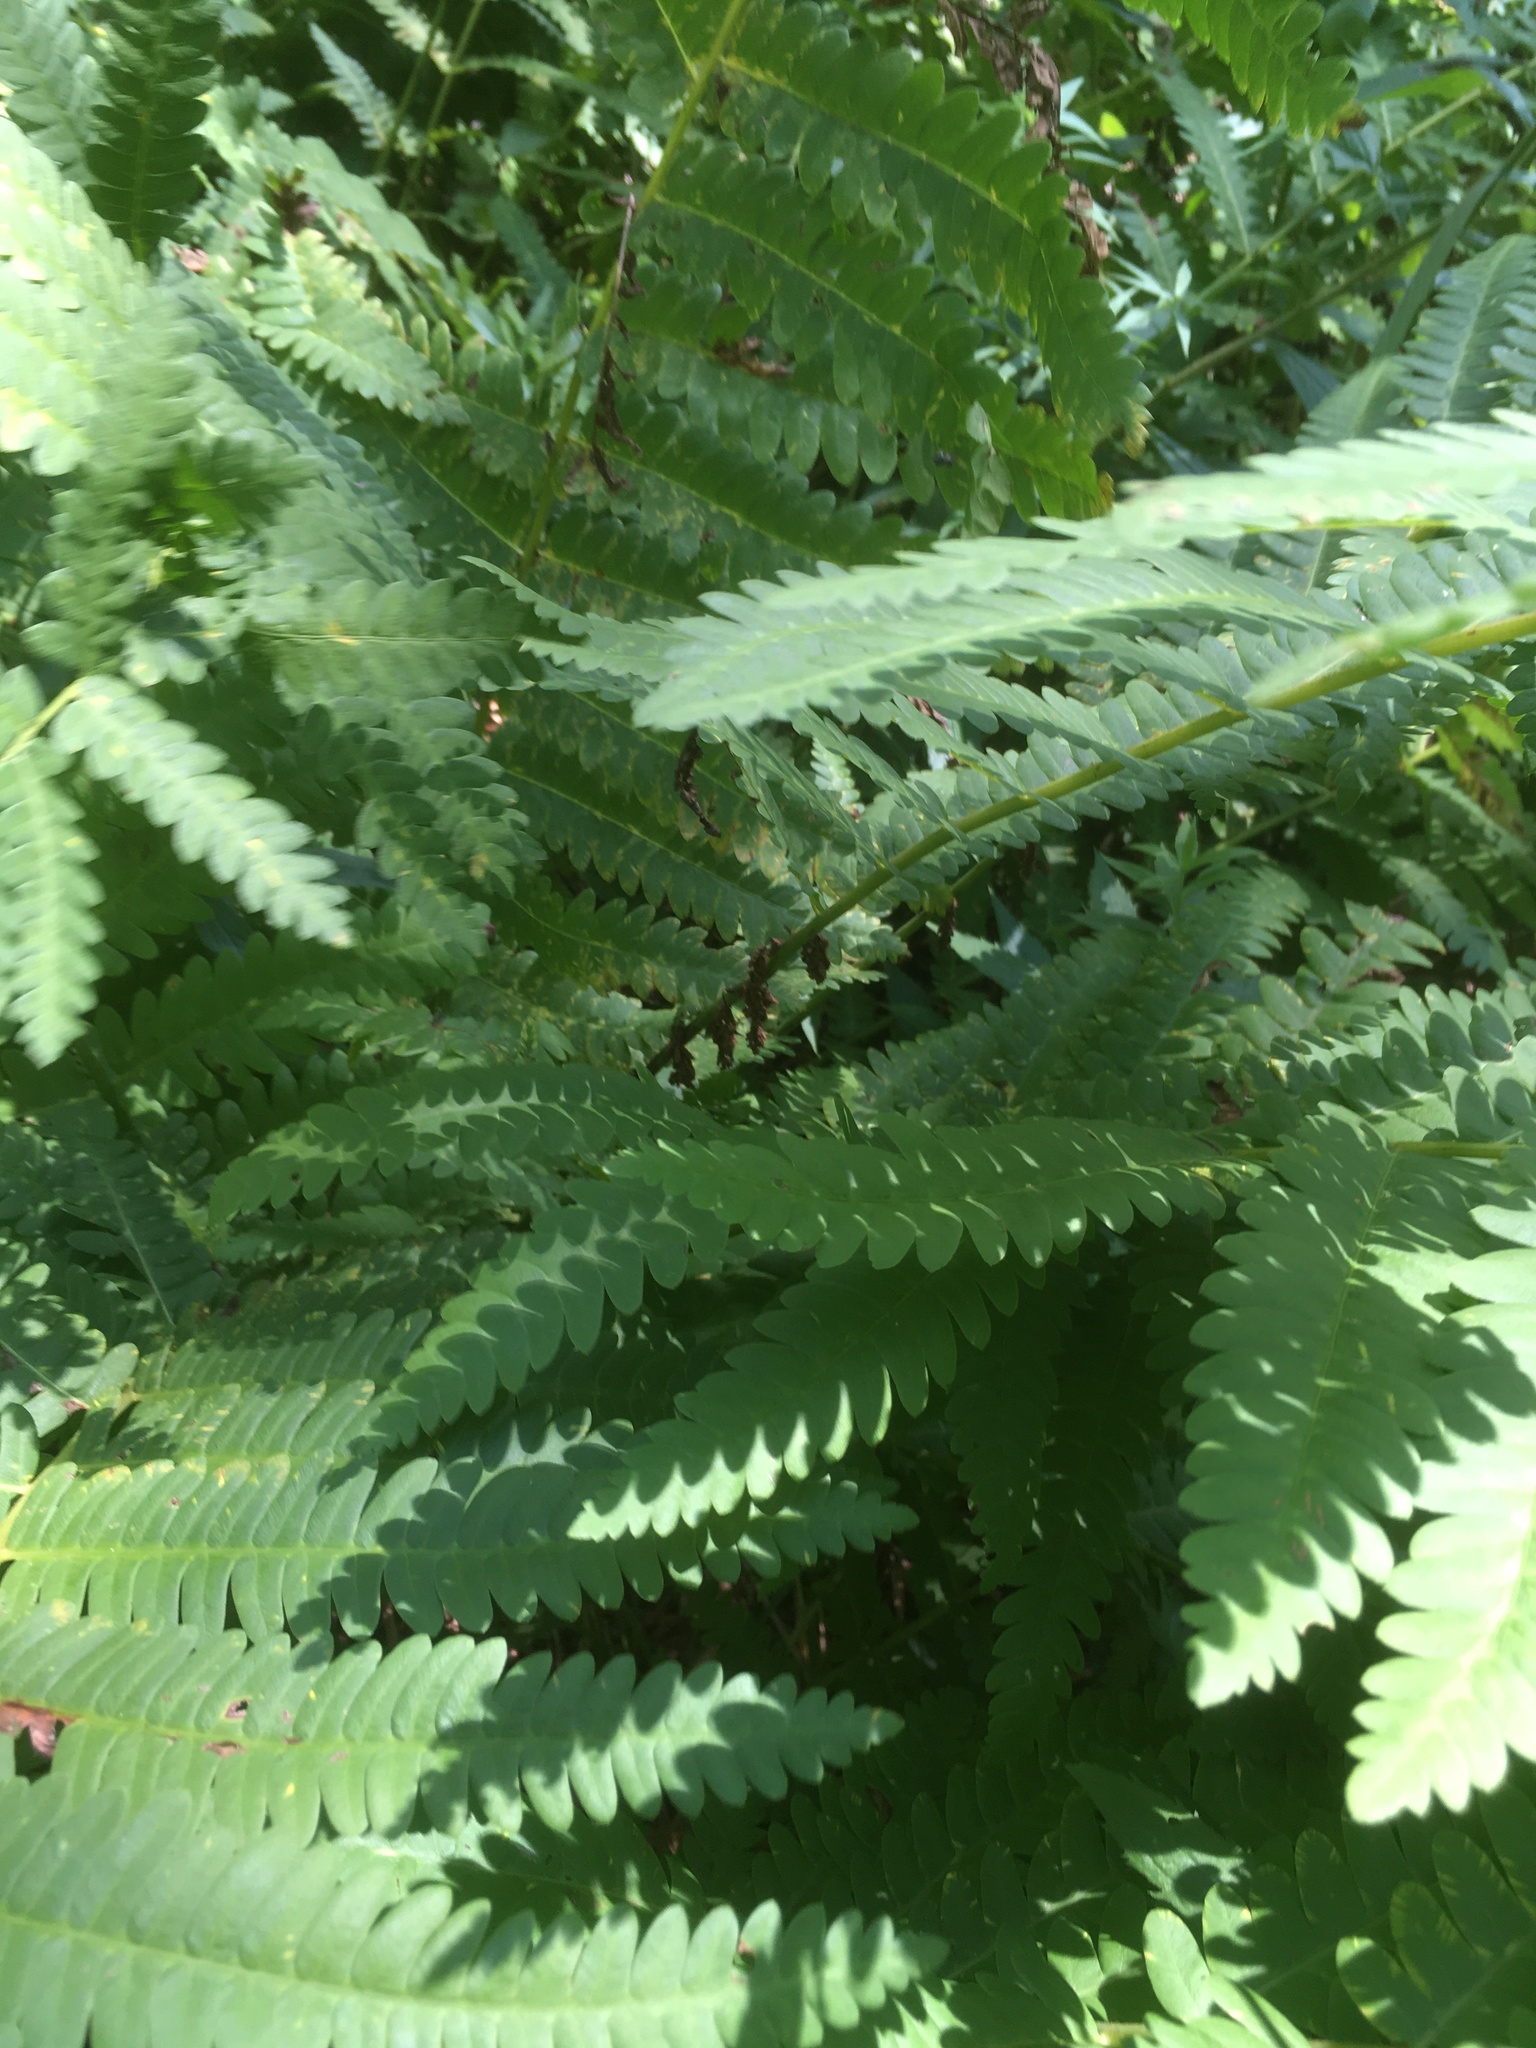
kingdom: Plantae
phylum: Tracheophyta
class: Polypodiopsida
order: Osmundales
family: Osmundaceae
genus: Claytosmunda
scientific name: Claytosmunda claytoniana
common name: Clayton's fern
